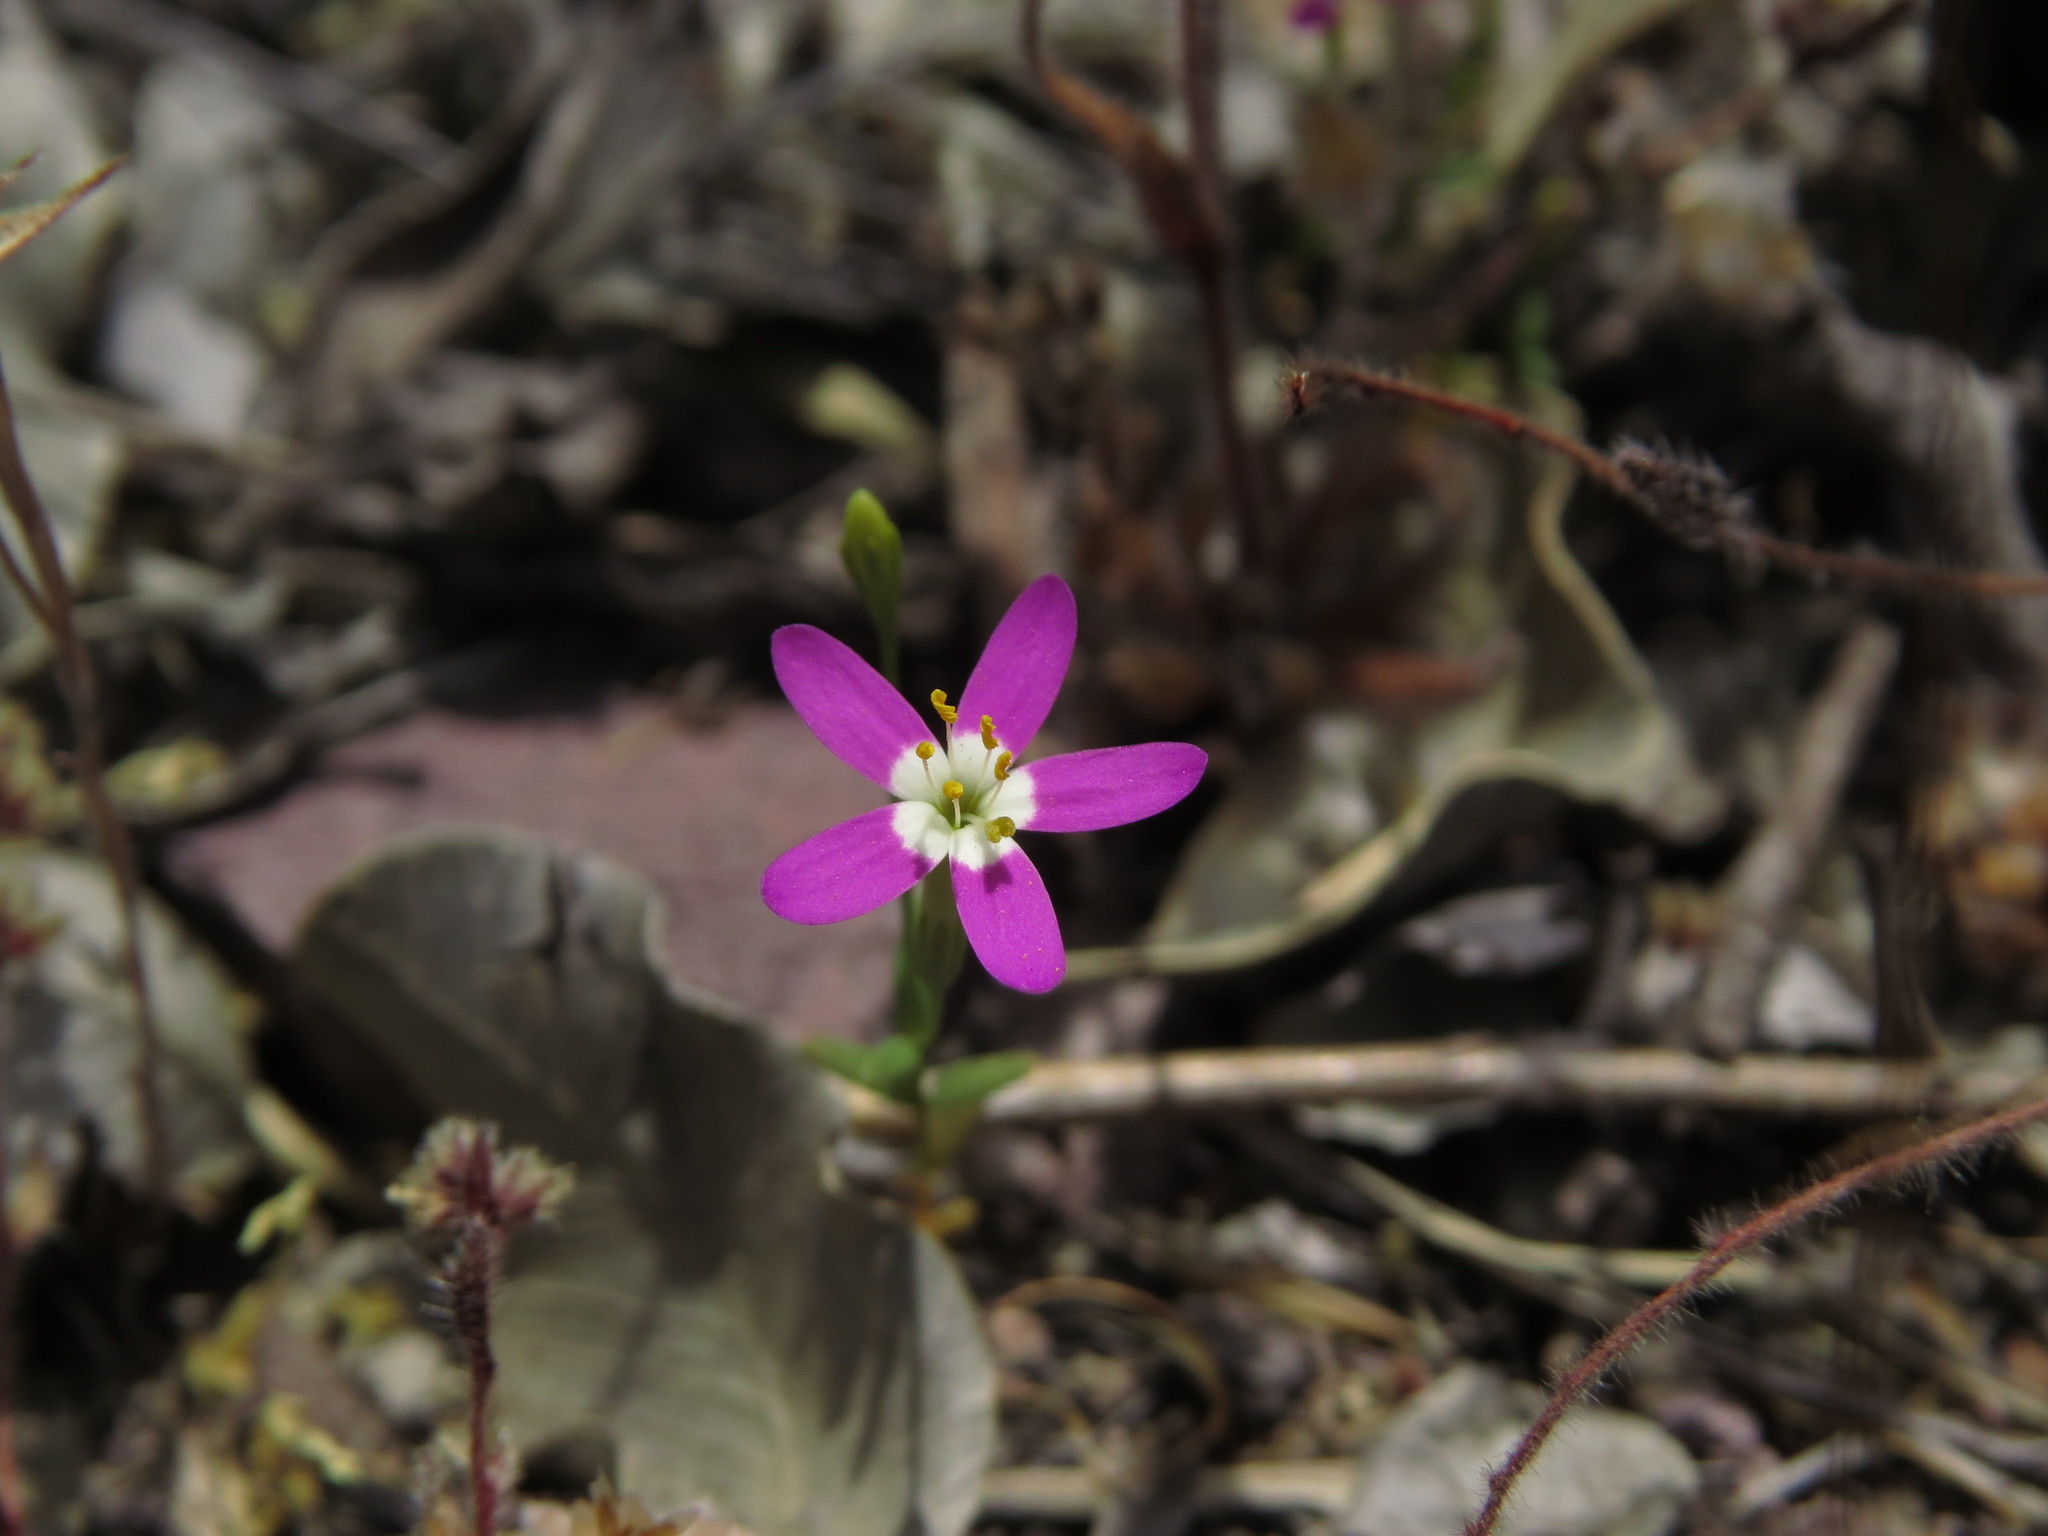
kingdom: Plantae
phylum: Tracheophyta
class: Magnoliopsida
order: Gentianales
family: Gentianaceae
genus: Centaurium
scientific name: Centaurium cachanlahuen
